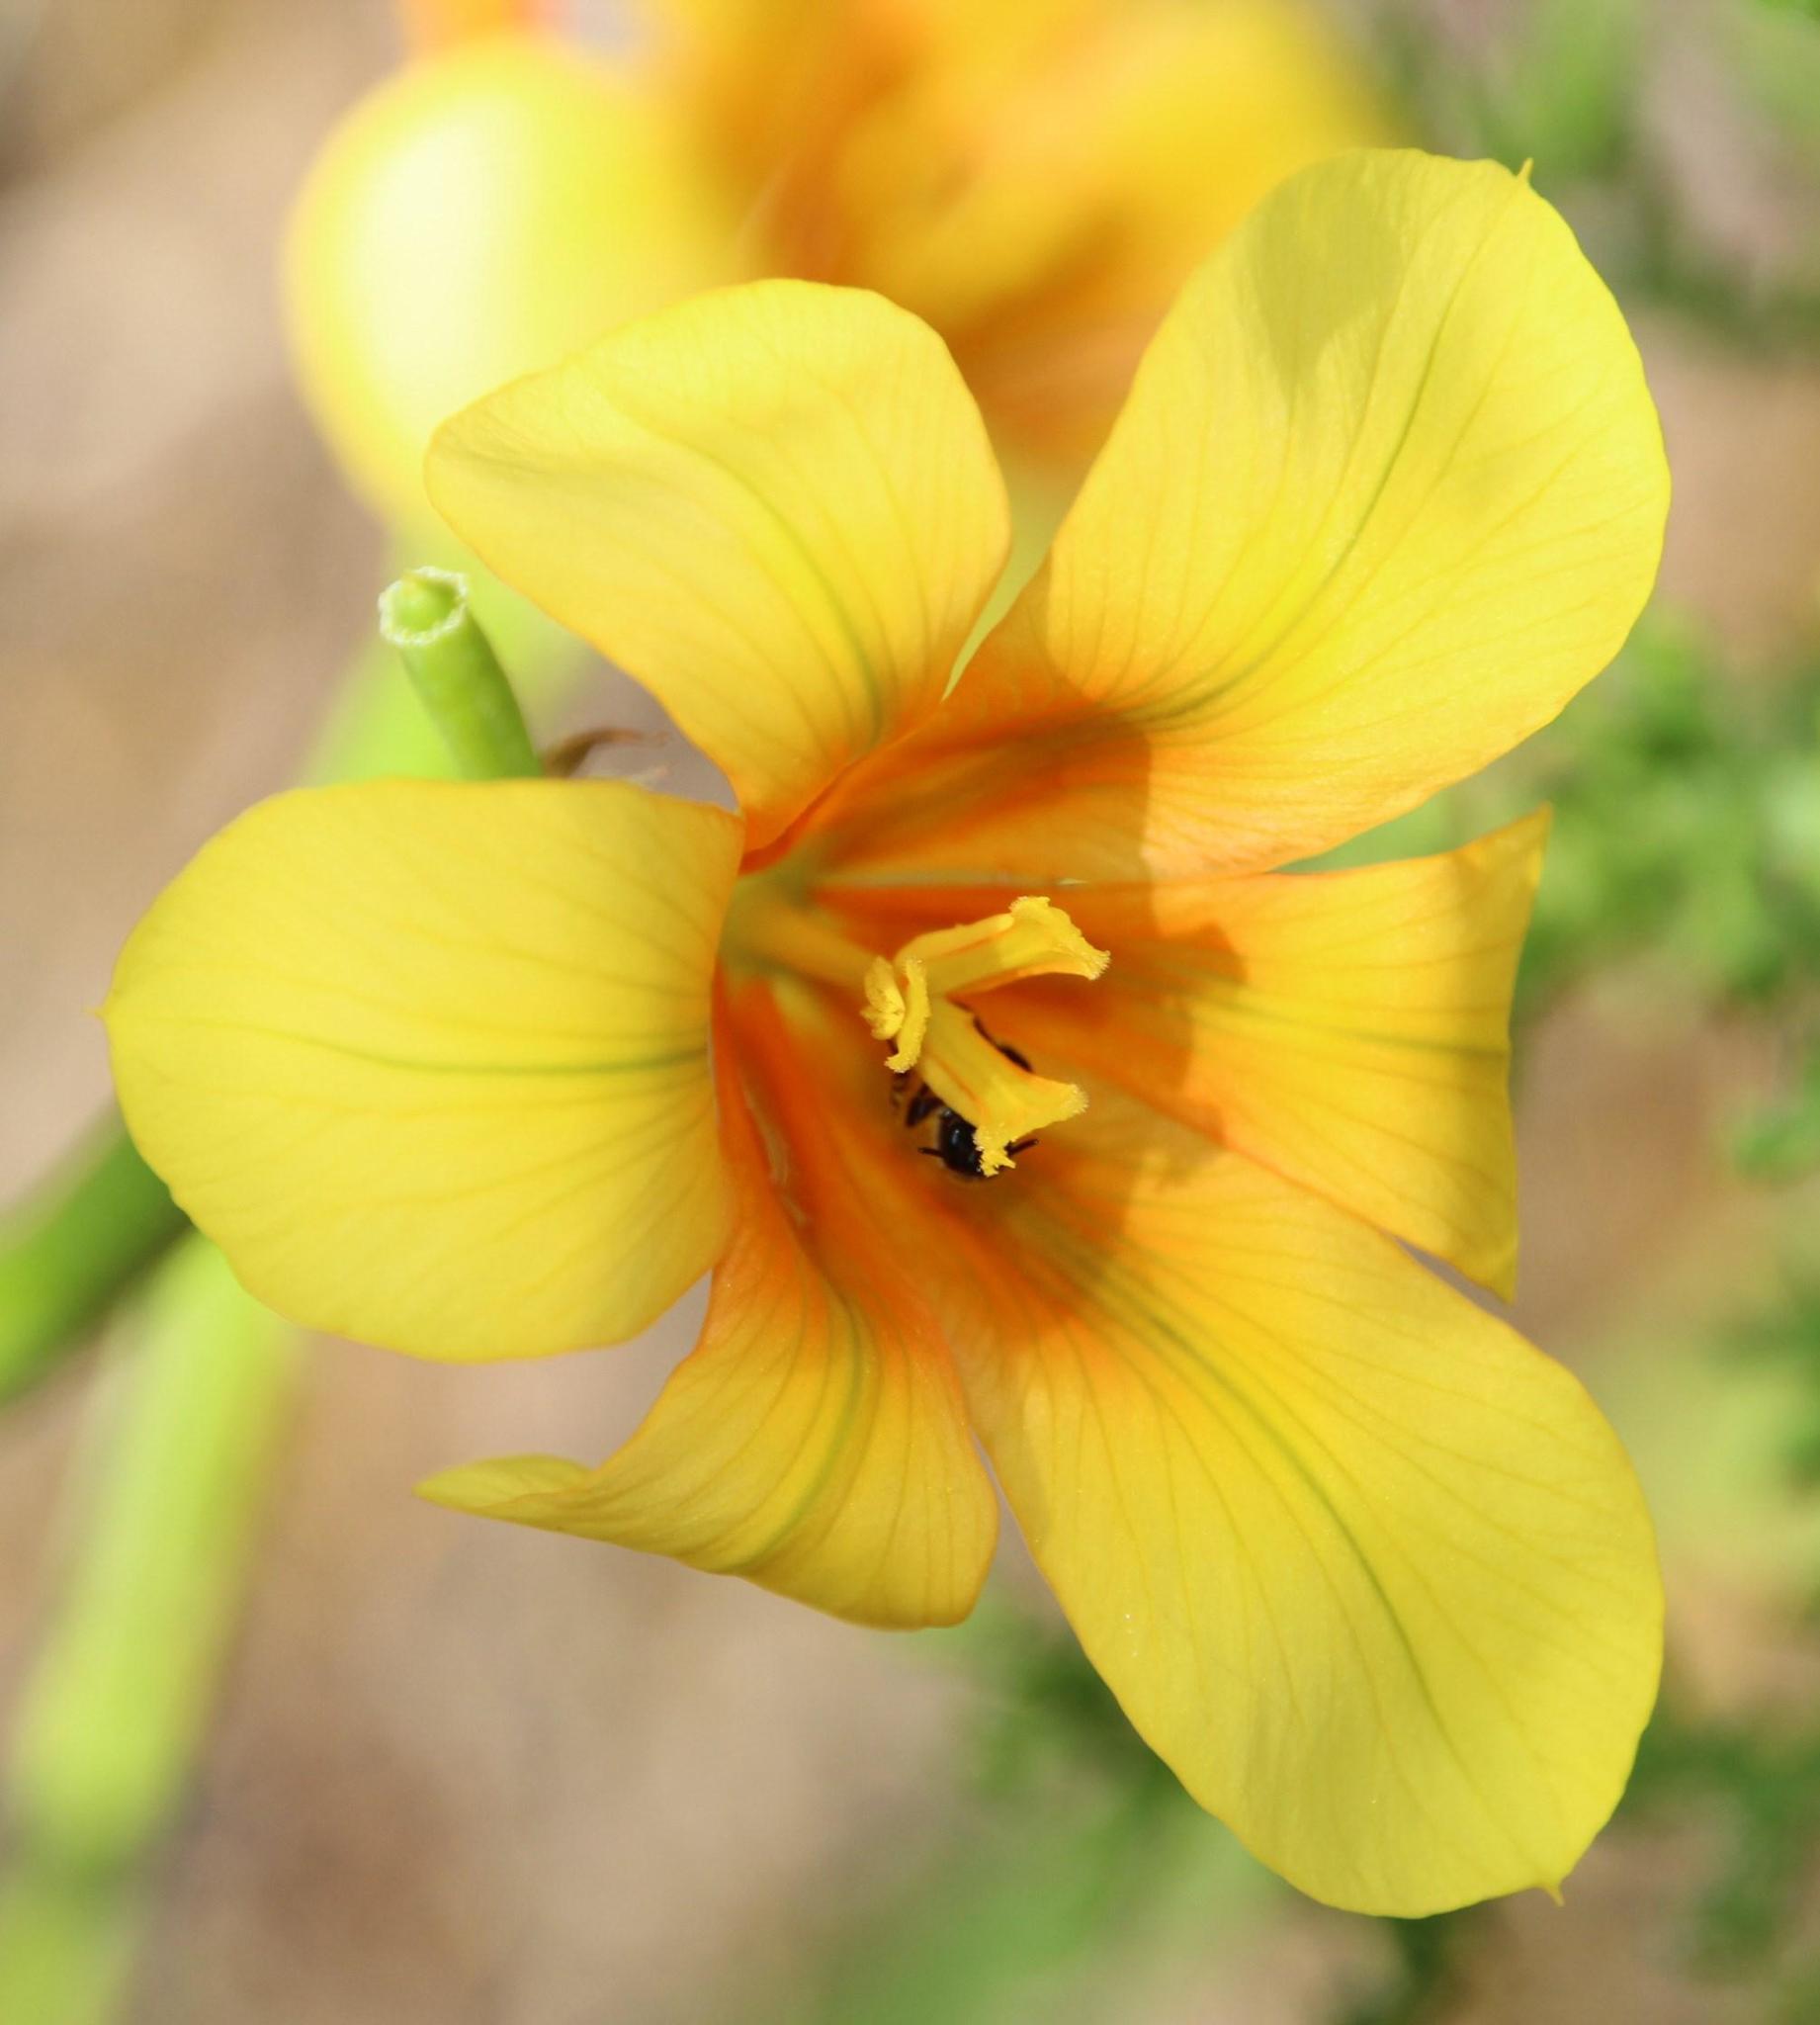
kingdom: Plantae
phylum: Tracheophyta
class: Liliopsida
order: Asparagales
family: Iridaceae
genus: Moraea
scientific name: Moraea ochroleuca
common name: Red tulp
